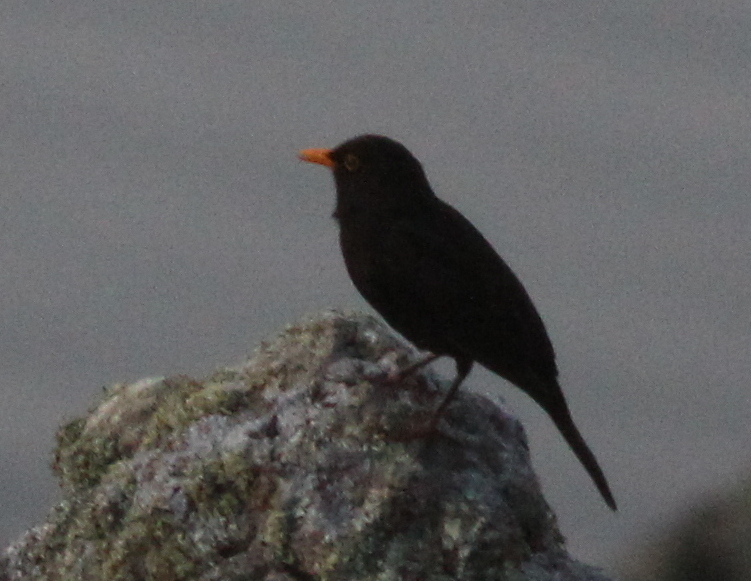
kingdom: Animalia
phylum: Chordata
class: Aves
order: Passeriformes
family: Turdidae
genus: Turdus
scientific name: Turdus merula
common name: Common blackbird
